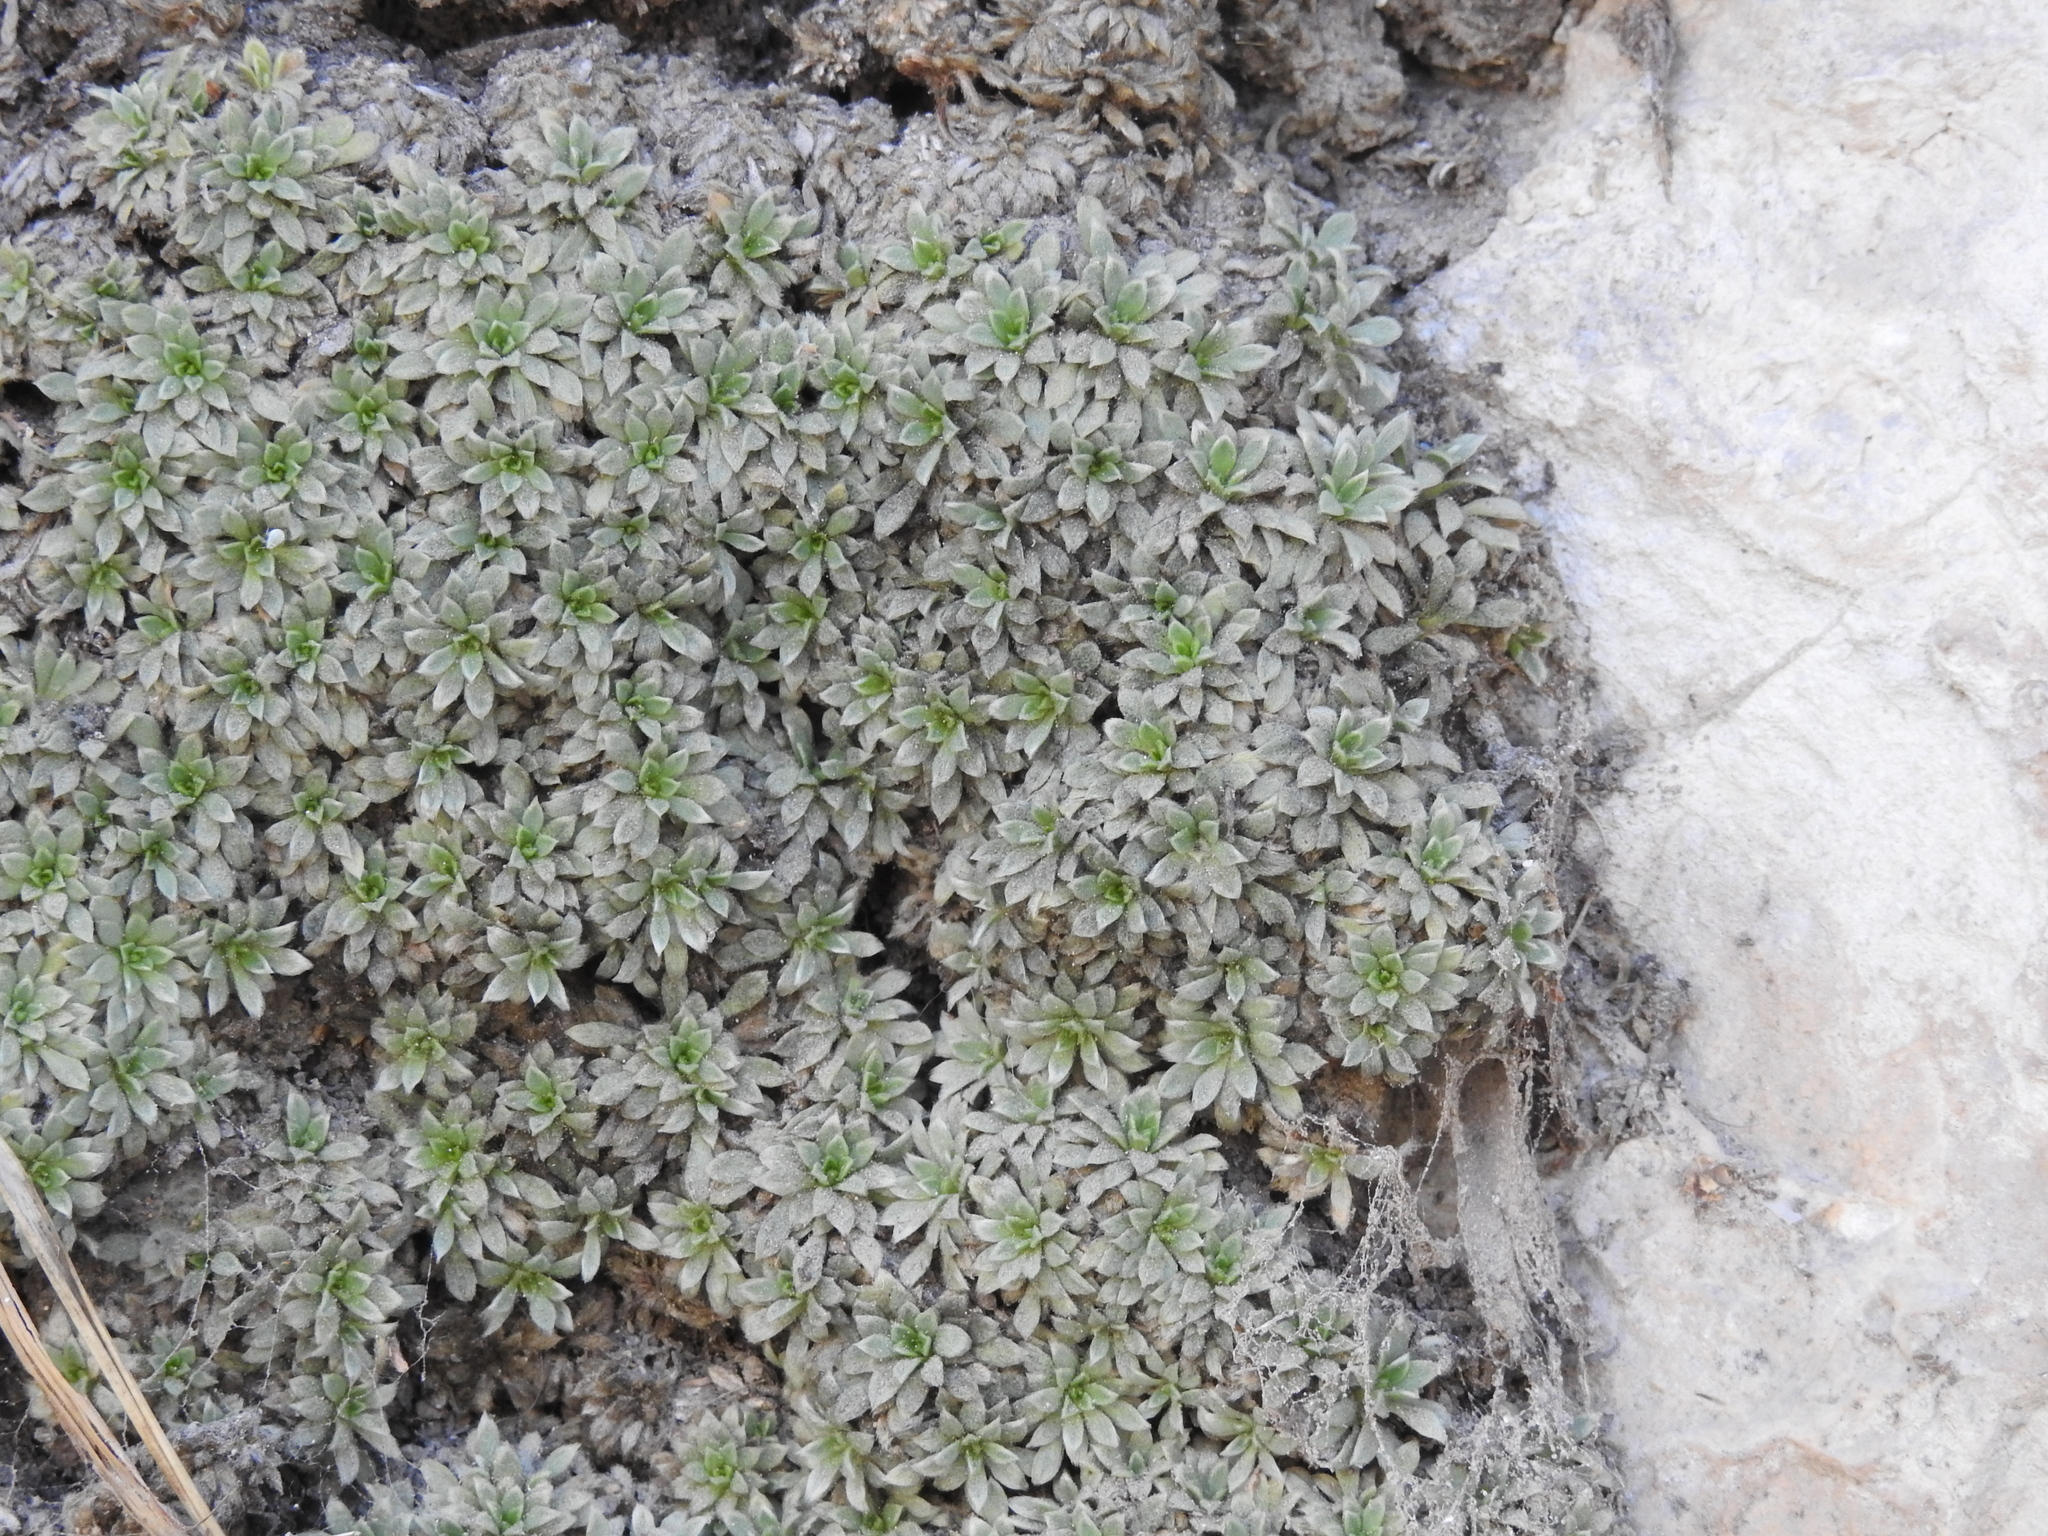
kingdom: Plantae
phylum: Tracheophyta
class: Magnoliopsida
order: Rosales
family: Rosaceae
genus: Petrophytum
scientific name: Petrophytum caespitosum
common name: Mat rockspirea
